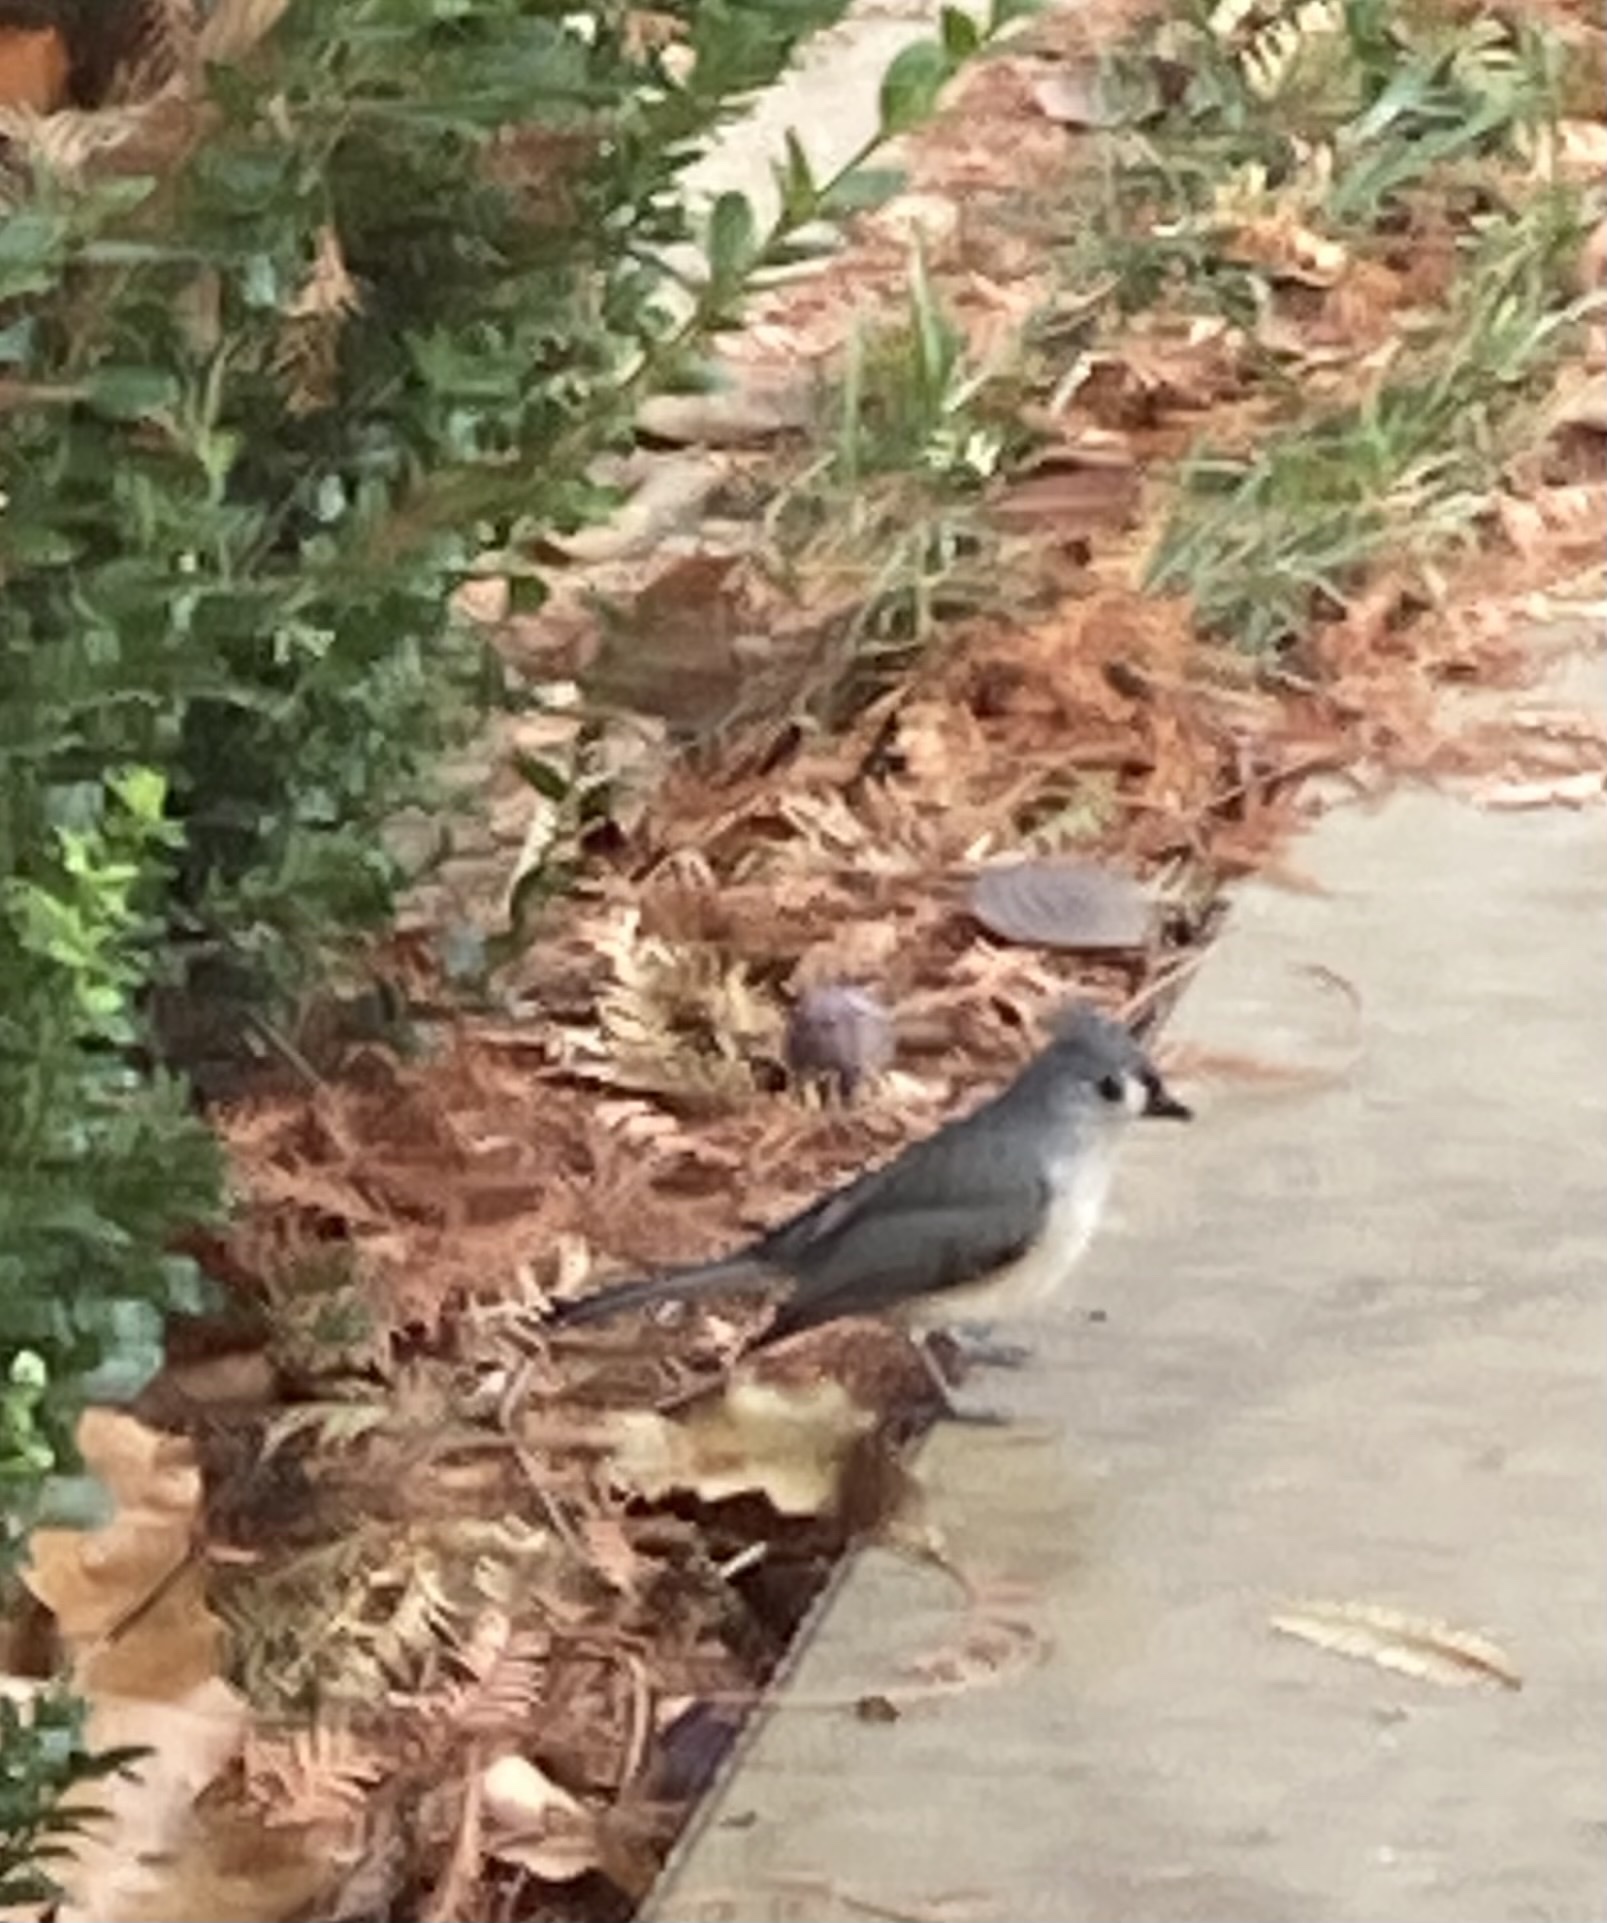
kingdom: Animalia
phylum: Chordata
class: Aves
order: Passeriformes
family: Paridae
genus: Baeolophus
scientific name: Baeolophus bicolor
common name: Tufted titmouse
